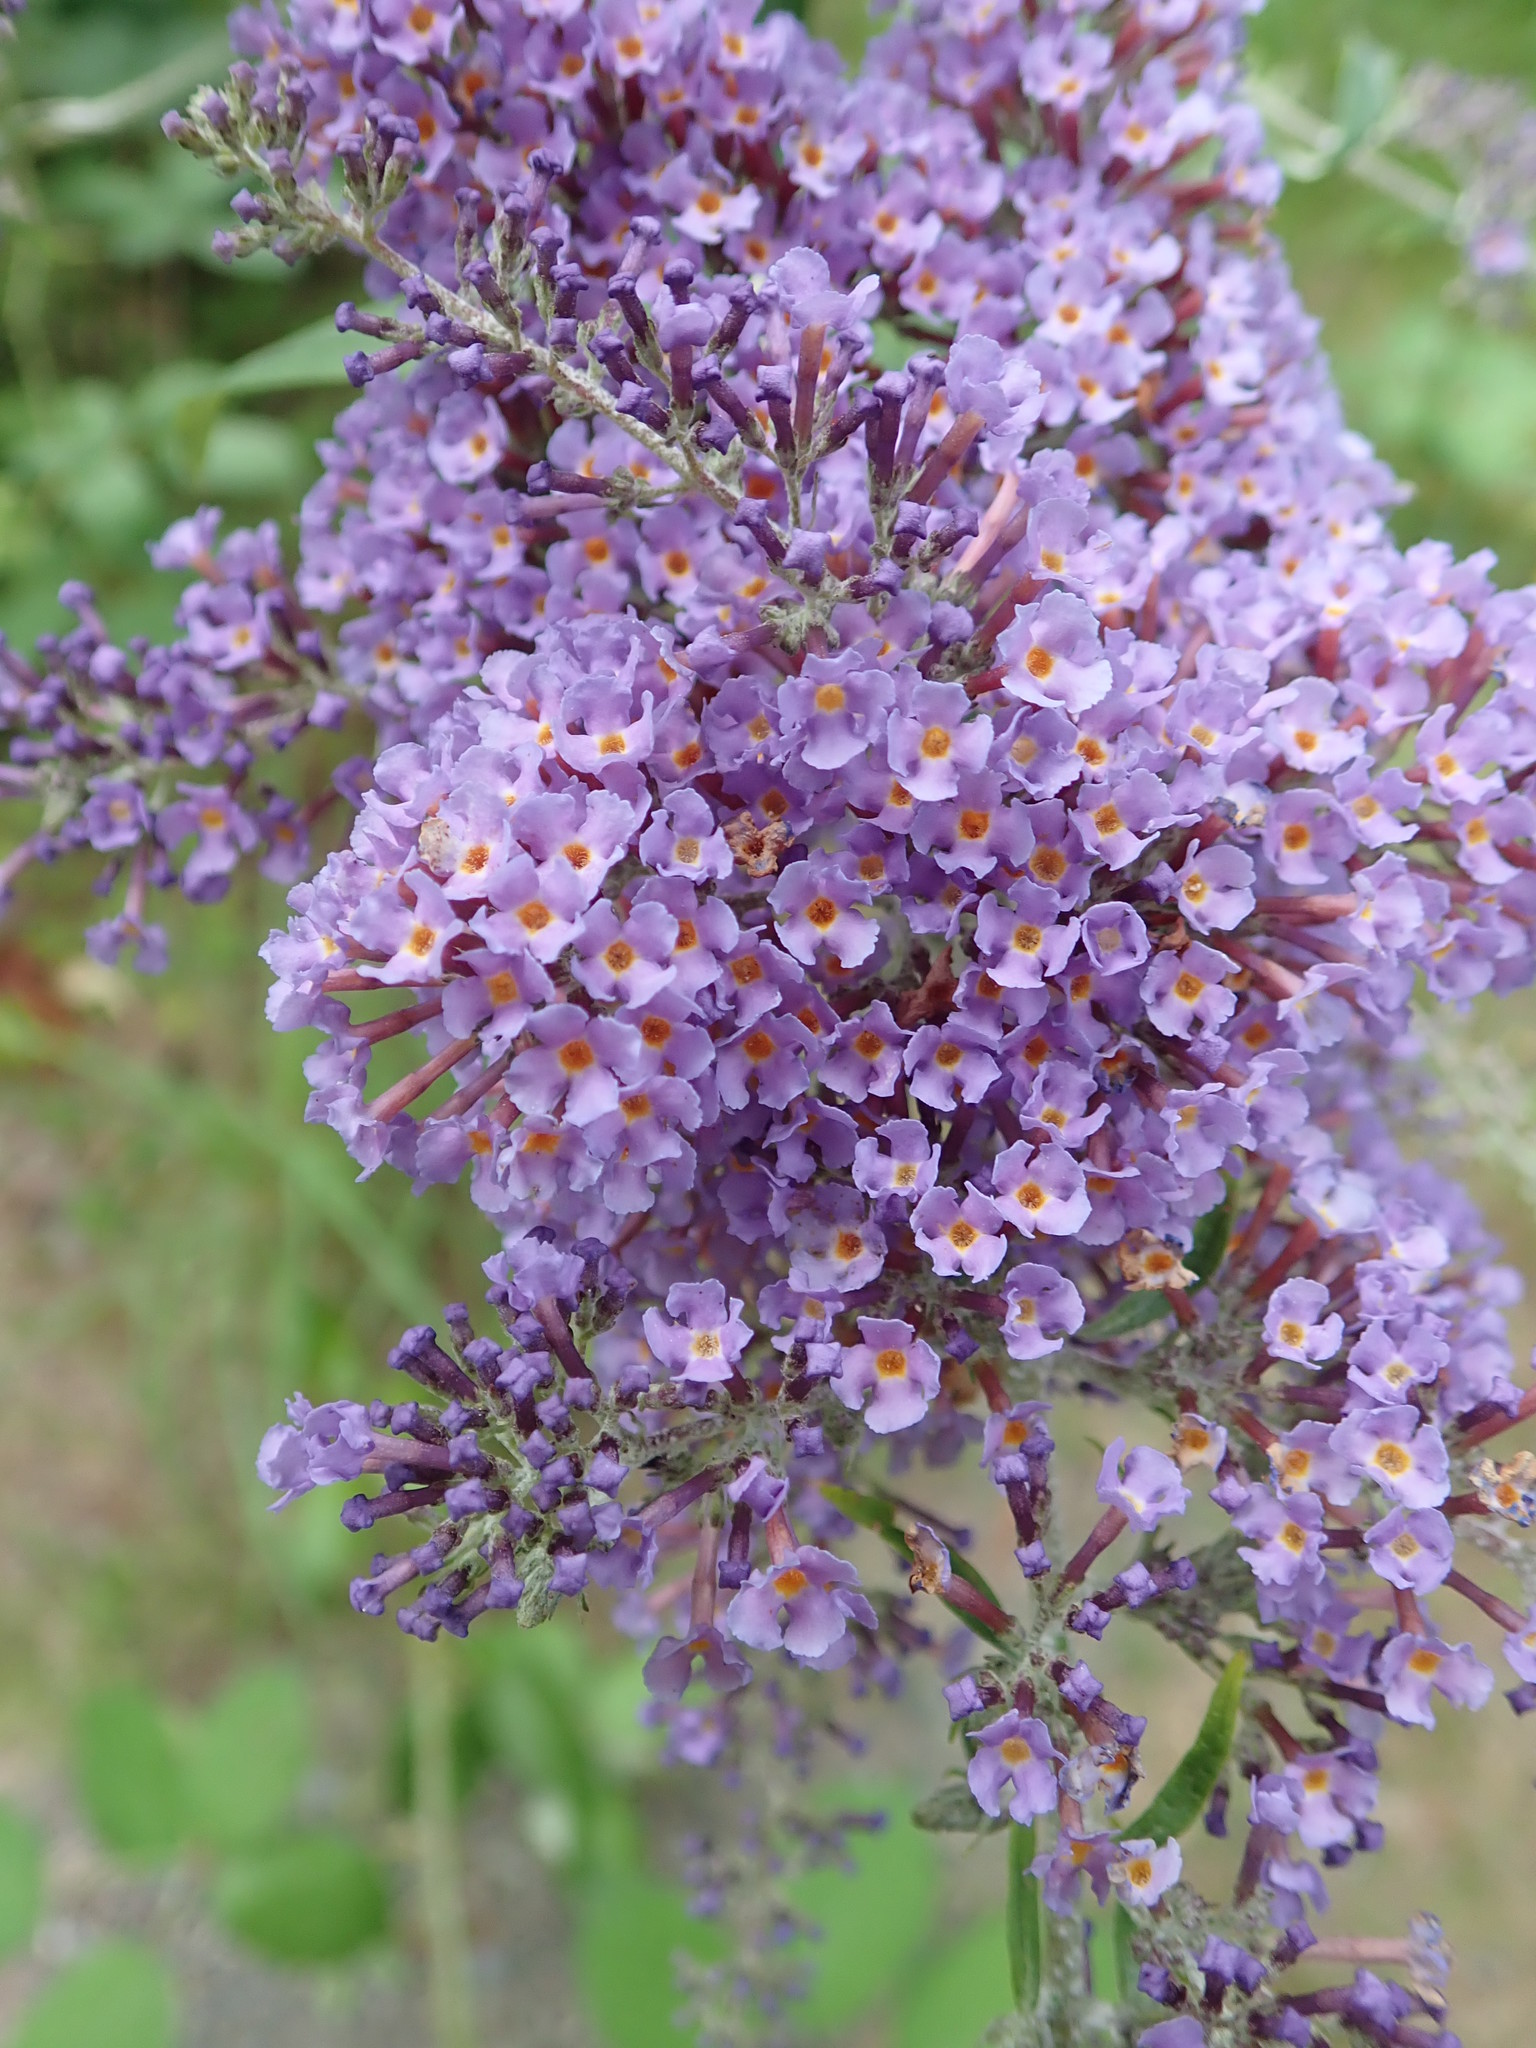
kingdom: Plantae
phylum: Tracheophyta
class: Magnoliopsida
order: Lamiales
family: Scrophulariaceae
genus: Buddleja
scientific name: Buddleja davidii
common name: Butterfly-bush
